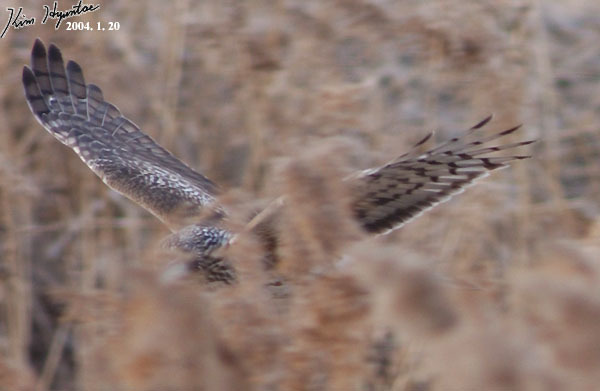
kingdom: Animalia
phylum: Chordata
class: Aves
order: Accipitriformes
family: Accipitridae
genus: Circus
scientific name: Circus cyaneus
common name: Hen harrier
